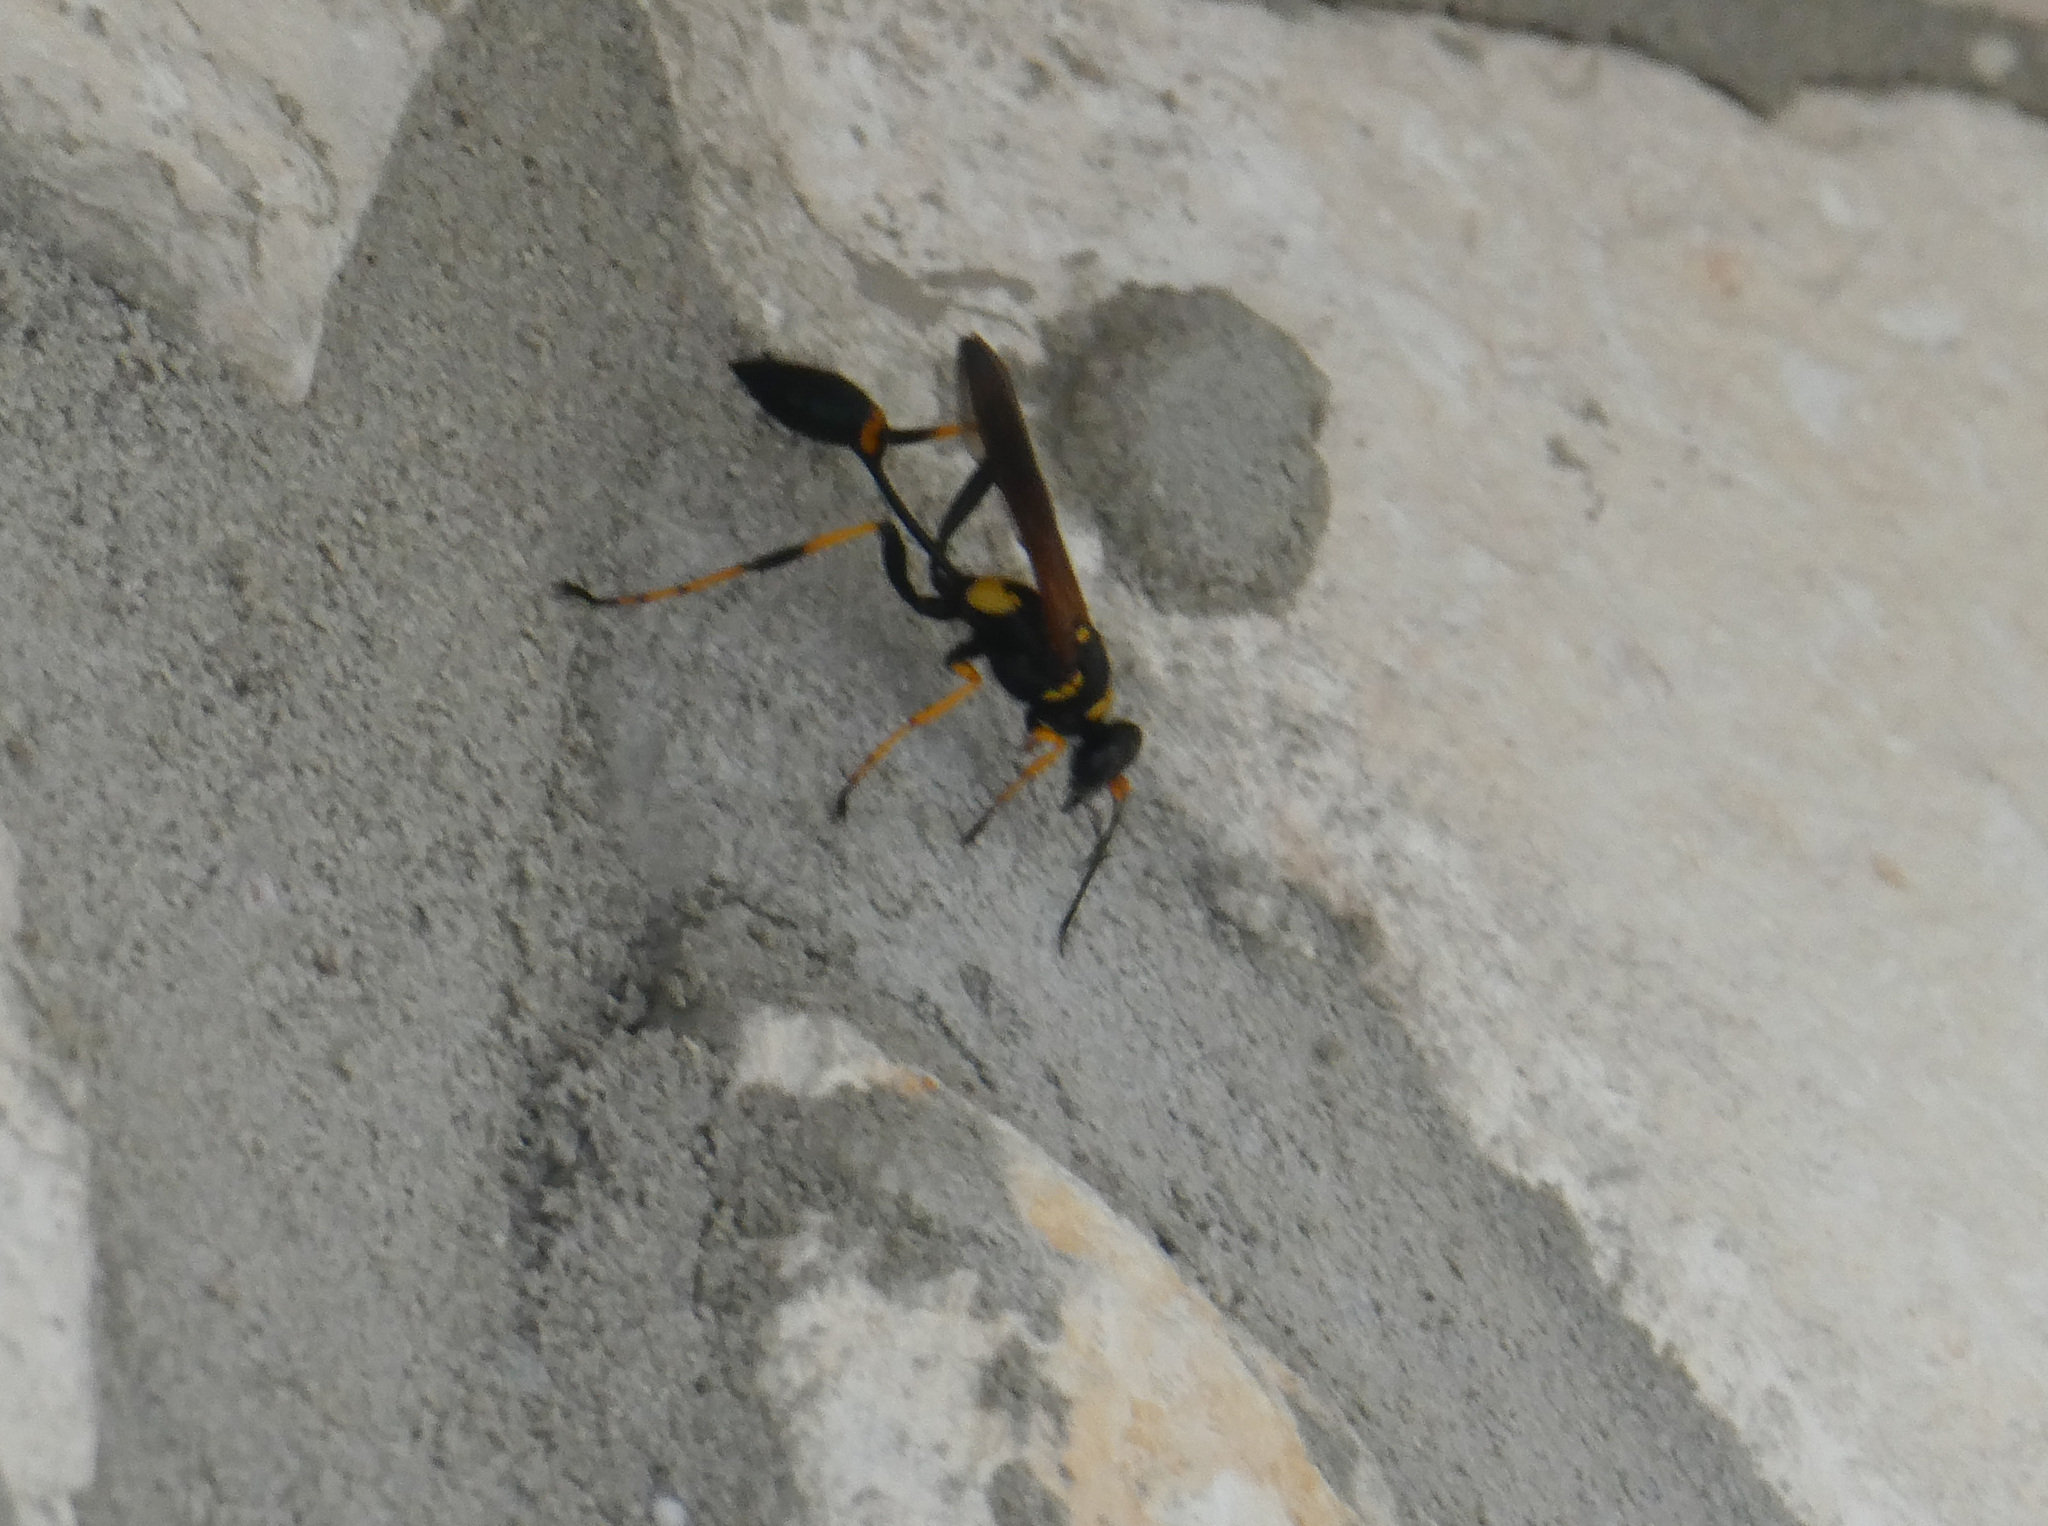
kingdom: Animalia
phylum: Arthropoda
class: Insecta
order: Hymenoptera
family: Sphecidae
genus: Sceliphron
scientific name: Sceliphron caementarium
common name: Mud dauber
